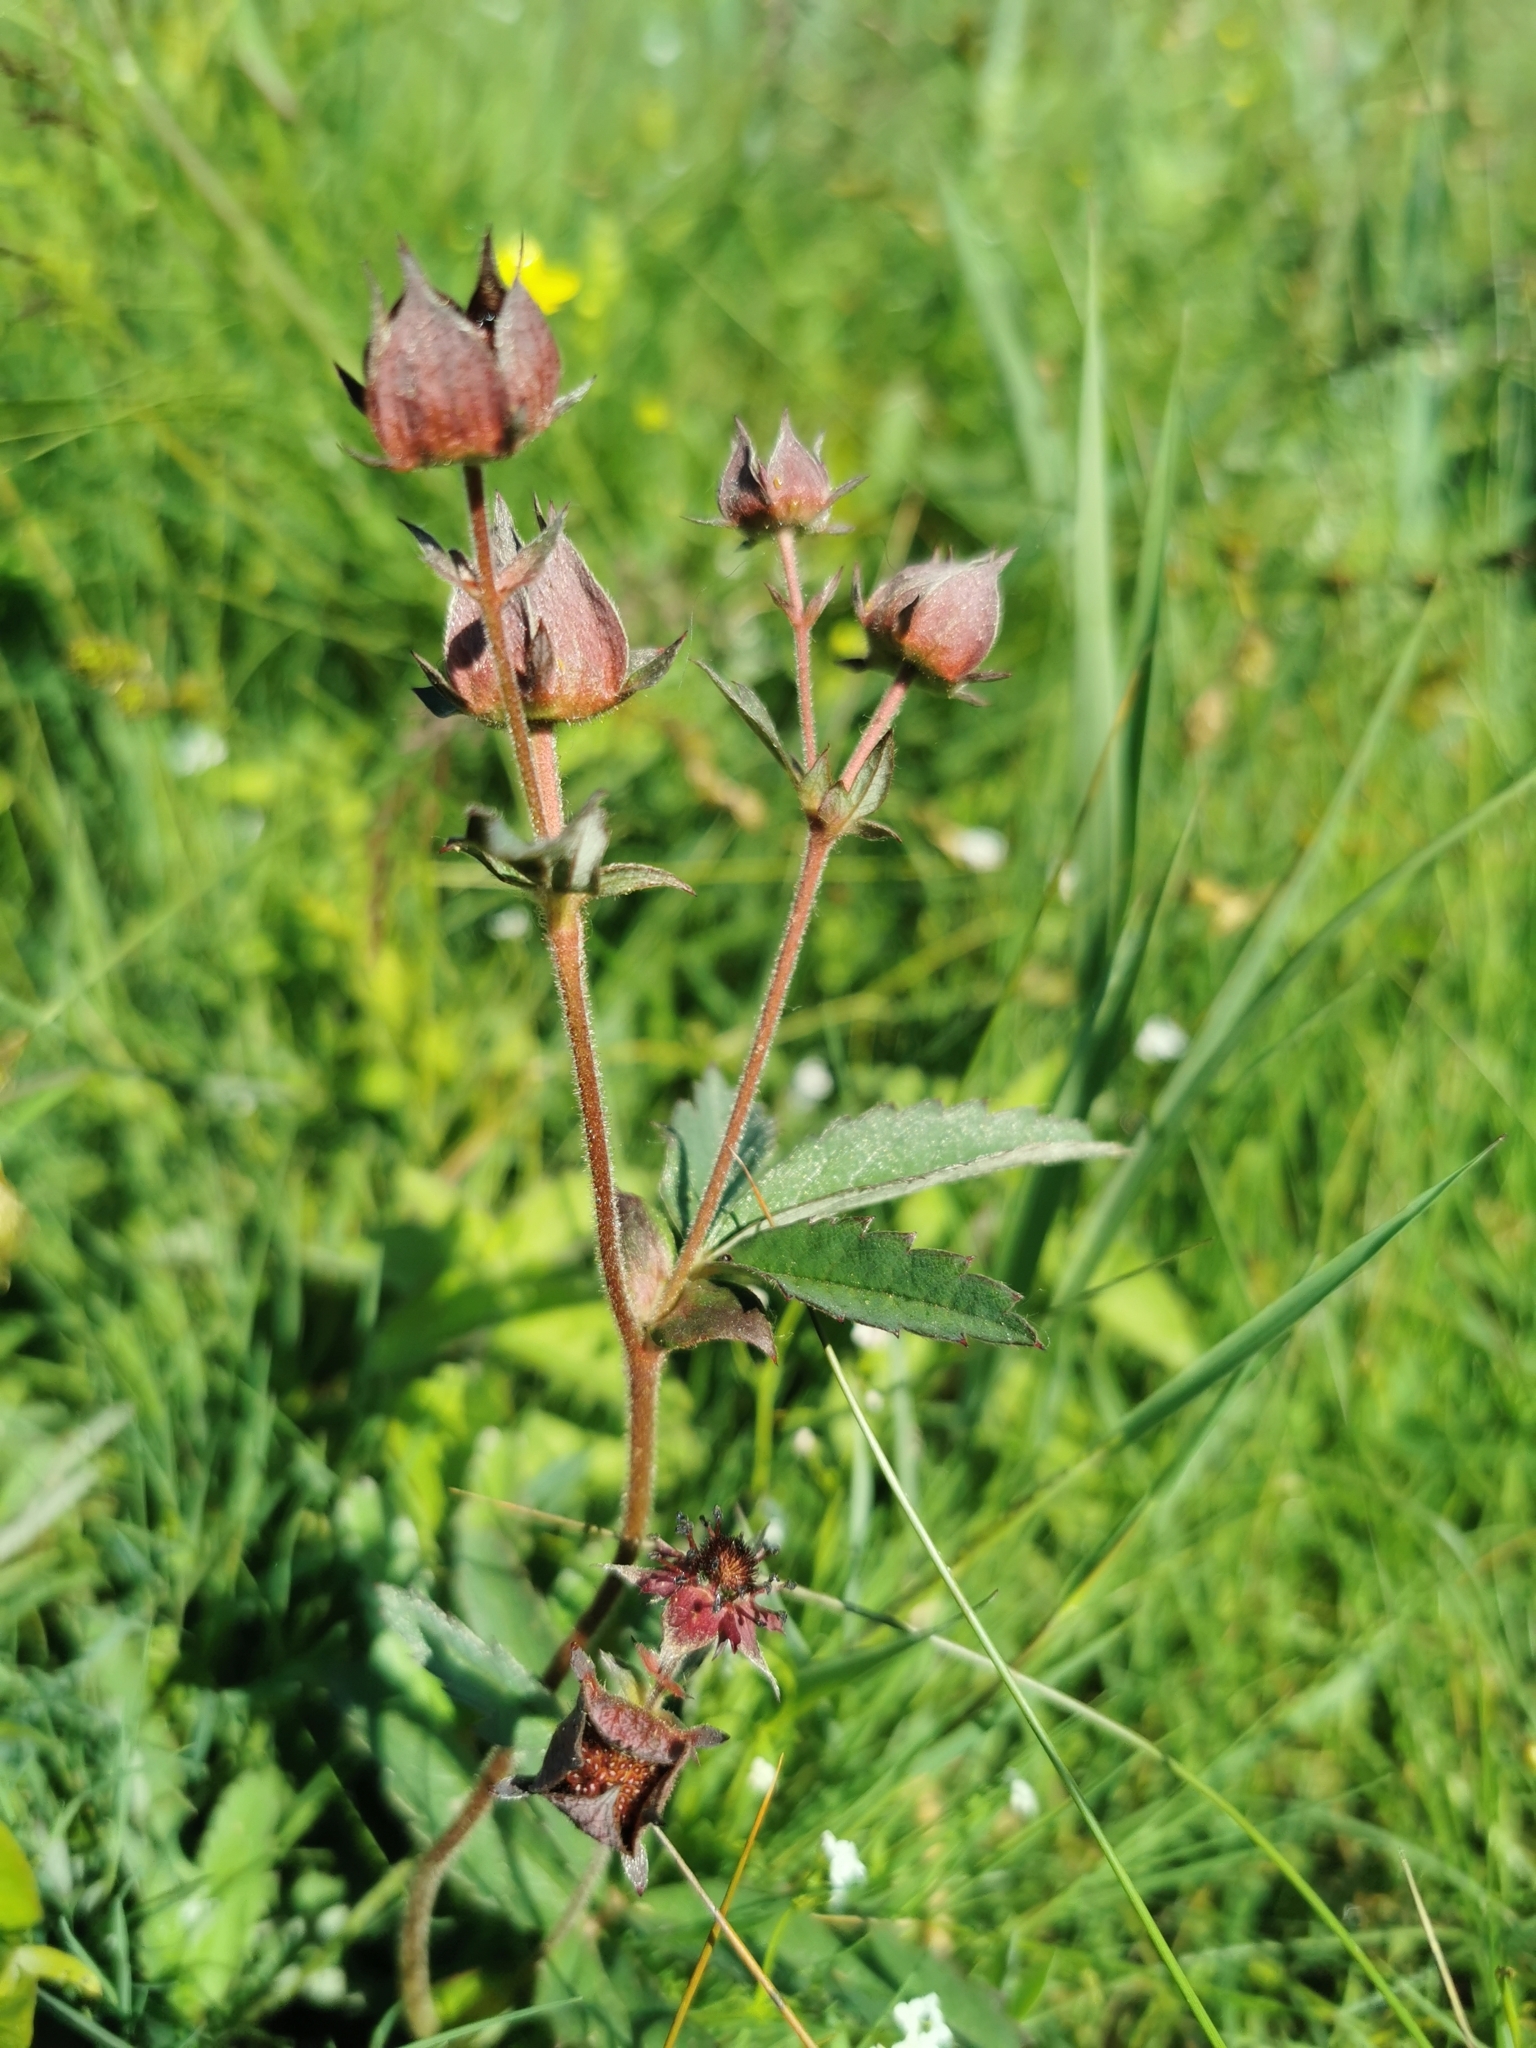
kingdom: Plantae
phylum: Tracheophyta
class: Magnoliopsida
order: Rosales
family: Rosaceae
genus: Comarum
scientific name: Comarum palustre
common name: Marsh cinquefoil
